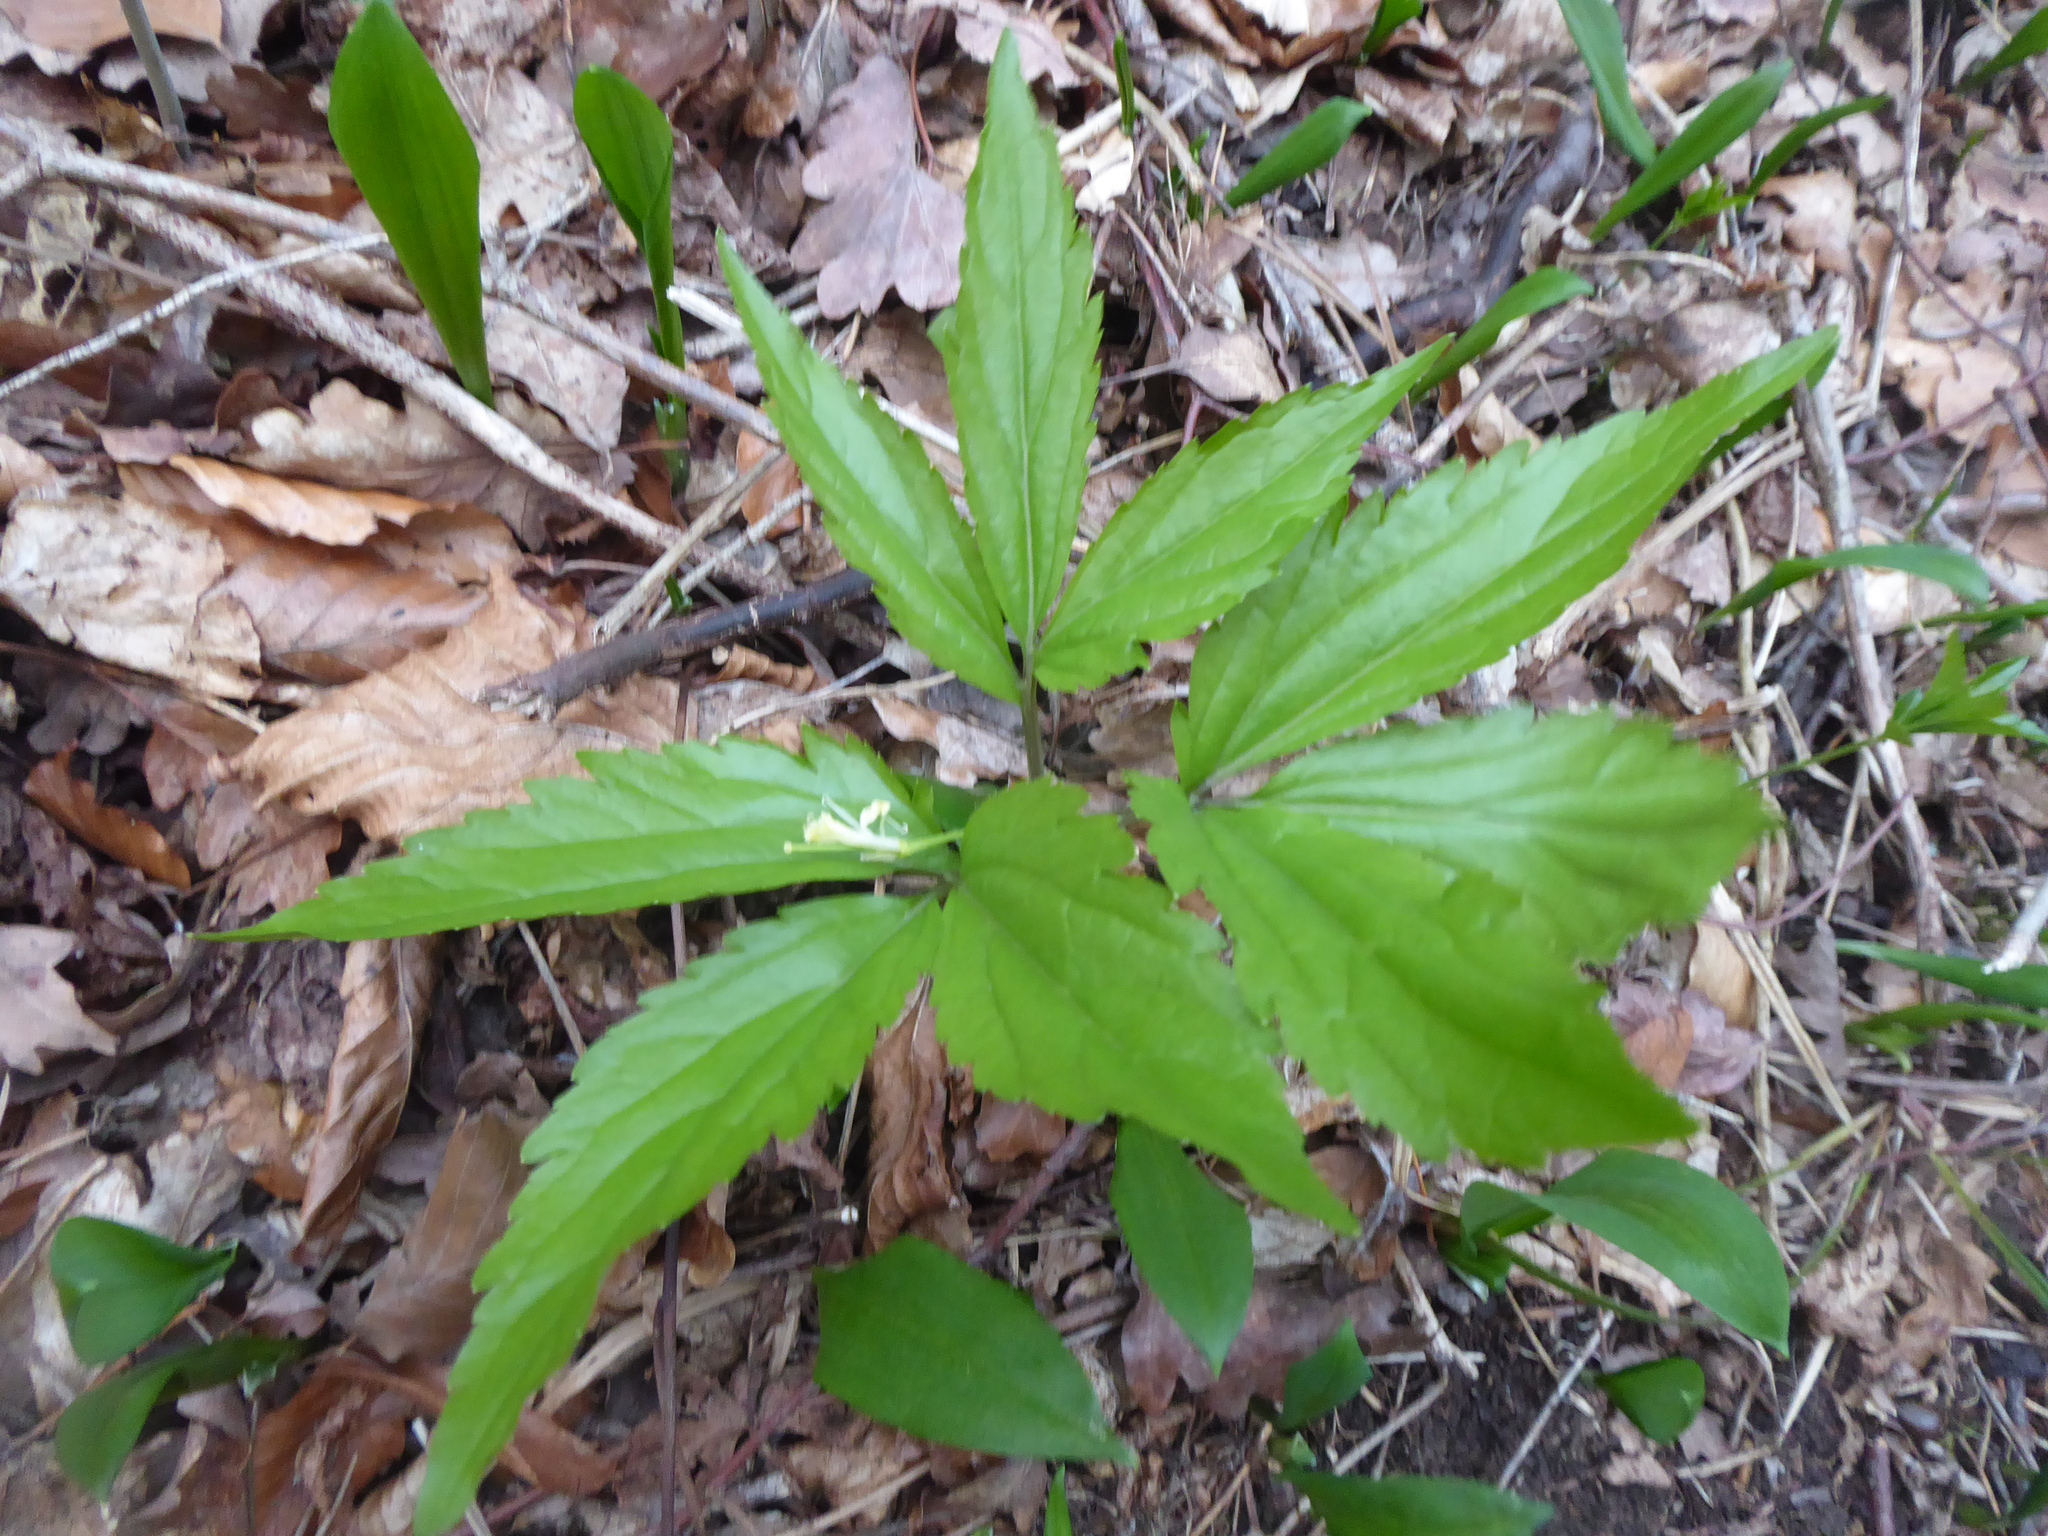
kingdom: Plantae
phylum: Tracheophyta
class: Magnoliopsida
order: Brassicales
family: Brassicaceae
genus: Cardamine
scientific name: Cardamine enneaphyllos
